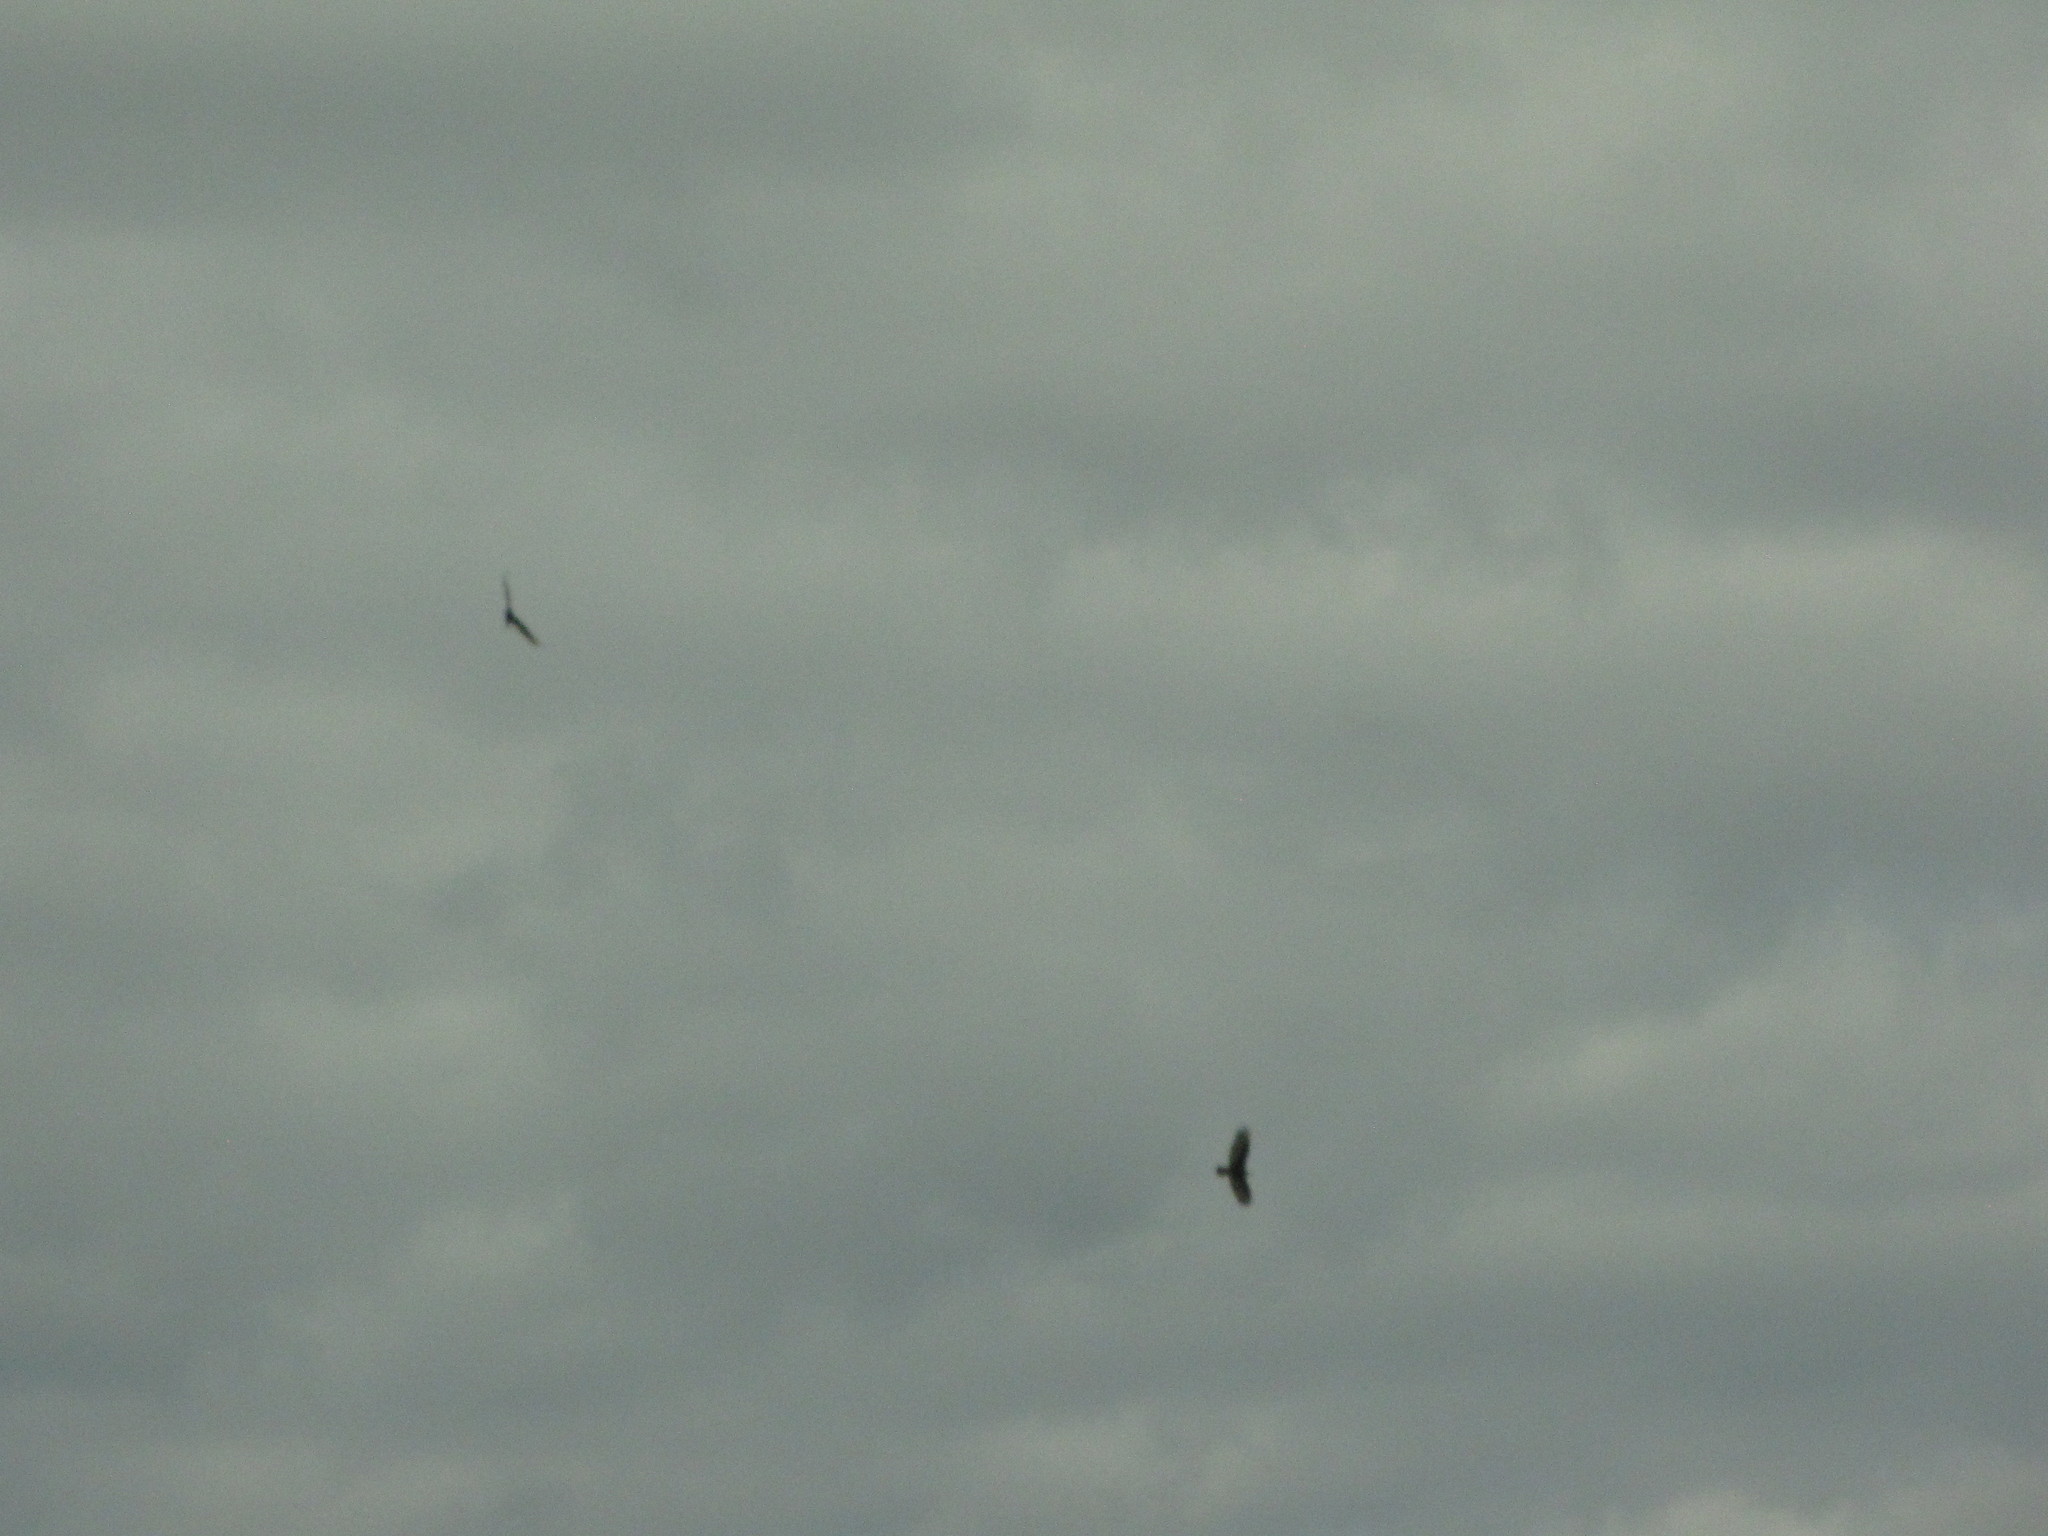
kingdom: Animalia
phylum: Chordata
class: Aves
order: Accipitriformes
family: Cathartidae
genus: Cathartes
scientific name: Cathartes aura
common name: Turkey vulture
